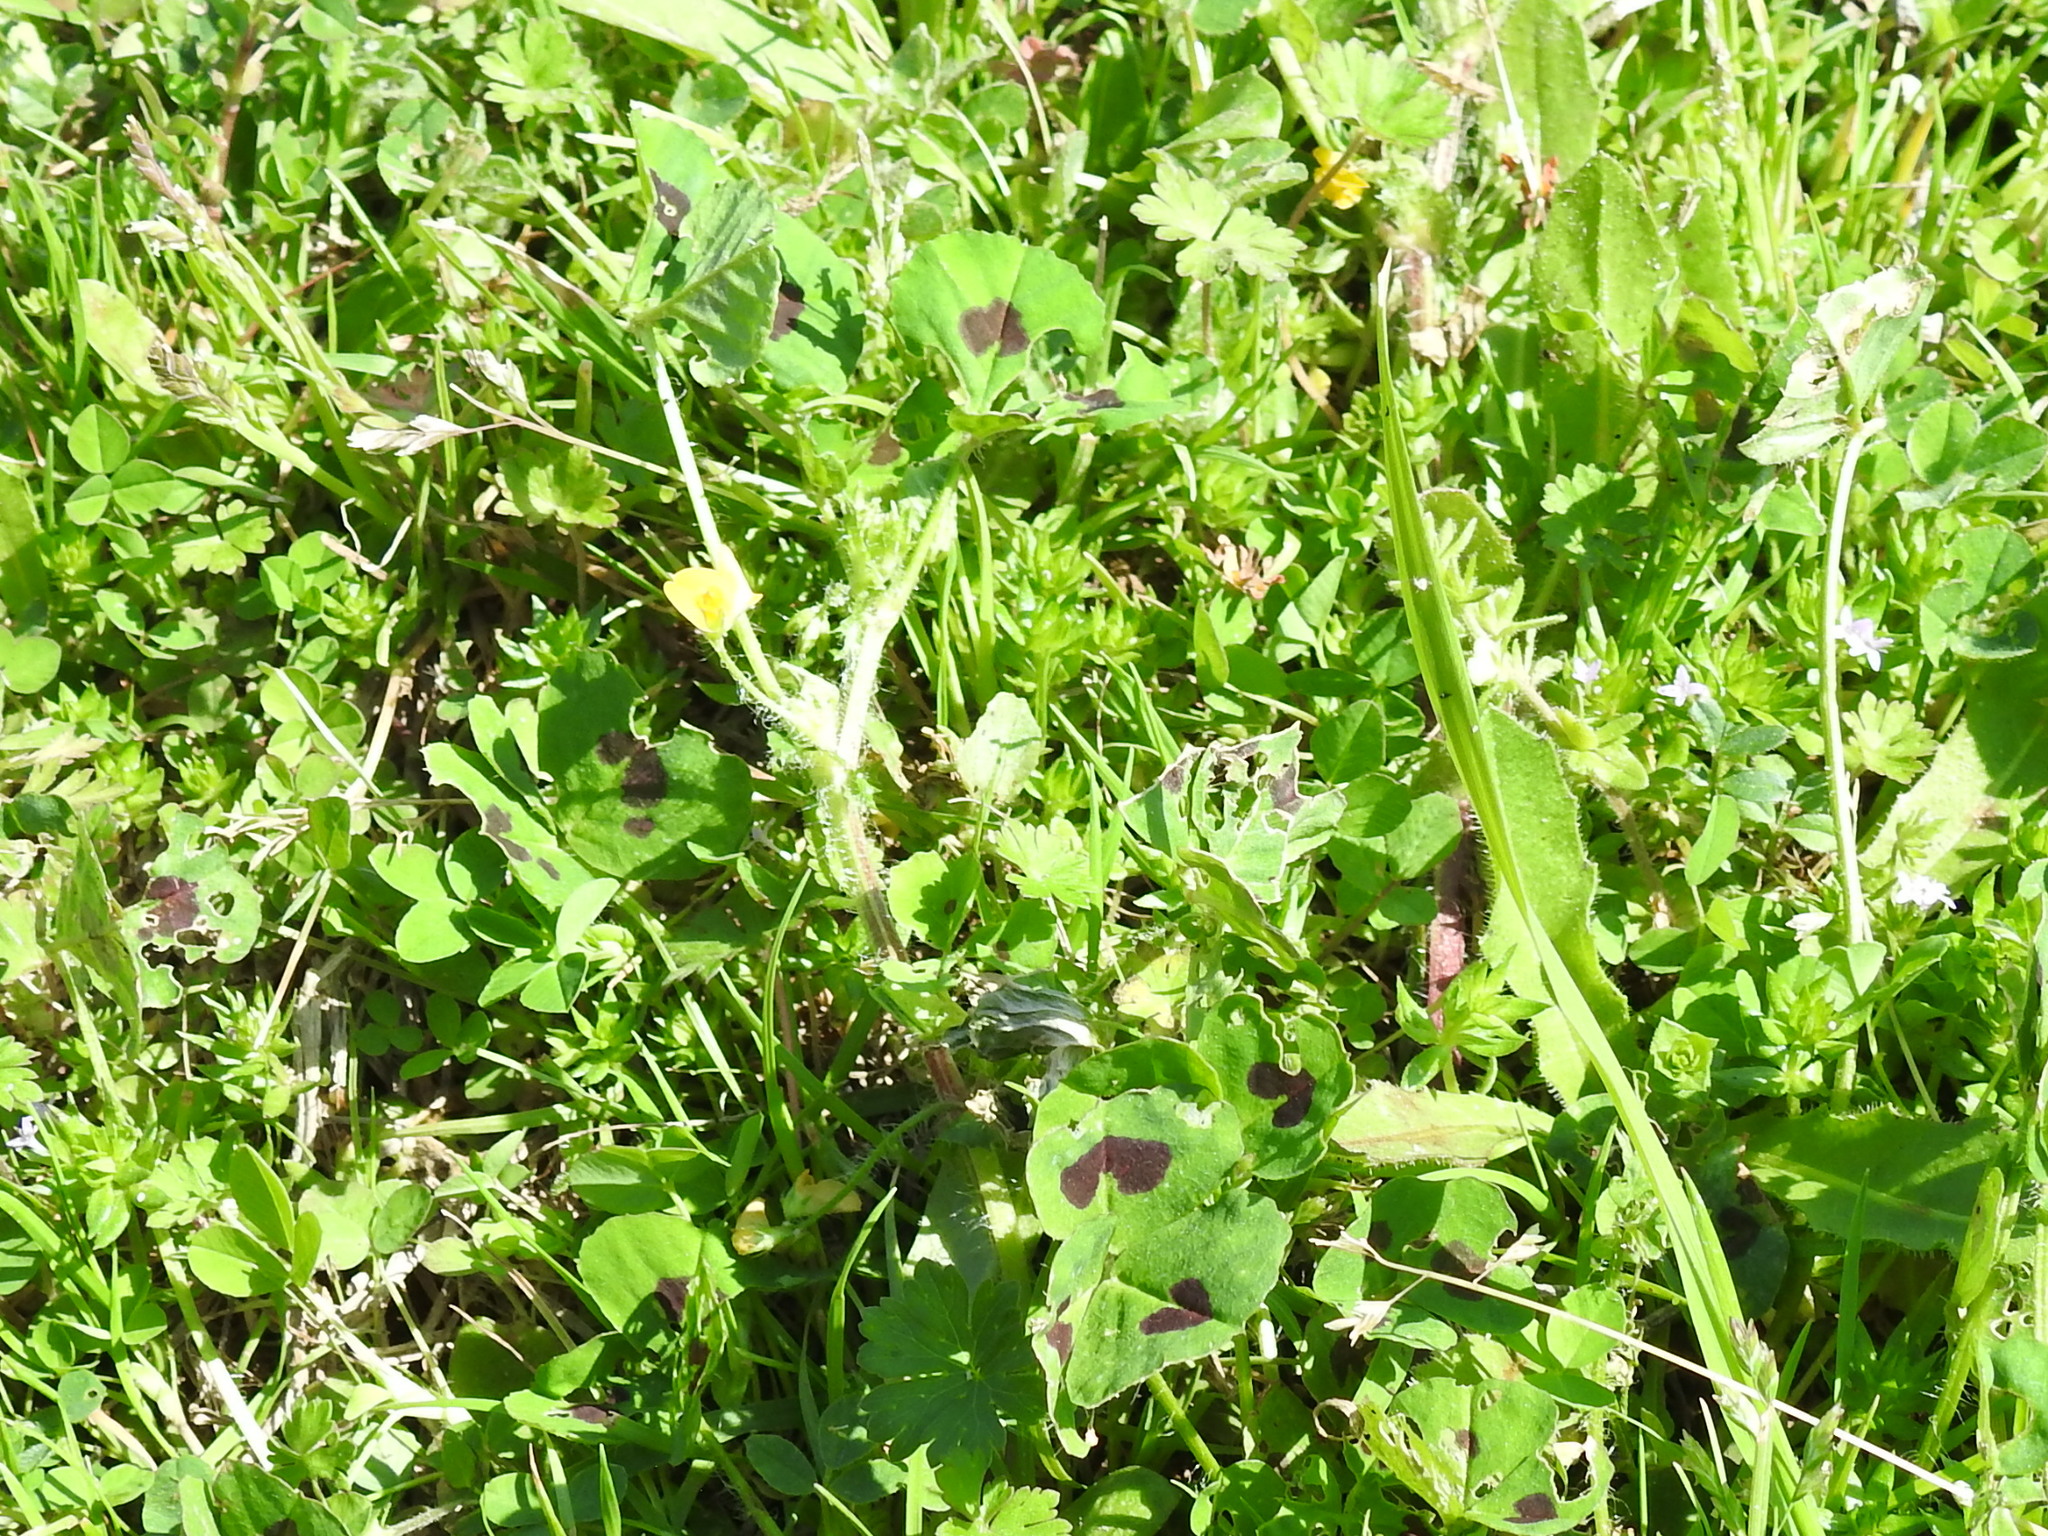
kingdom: Plantae
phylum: Tracheophyta
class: Magnoliopsida
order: Fabales
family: Fabaceae
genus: Medicago
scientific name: Medicago arabica
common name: Spotted medick
